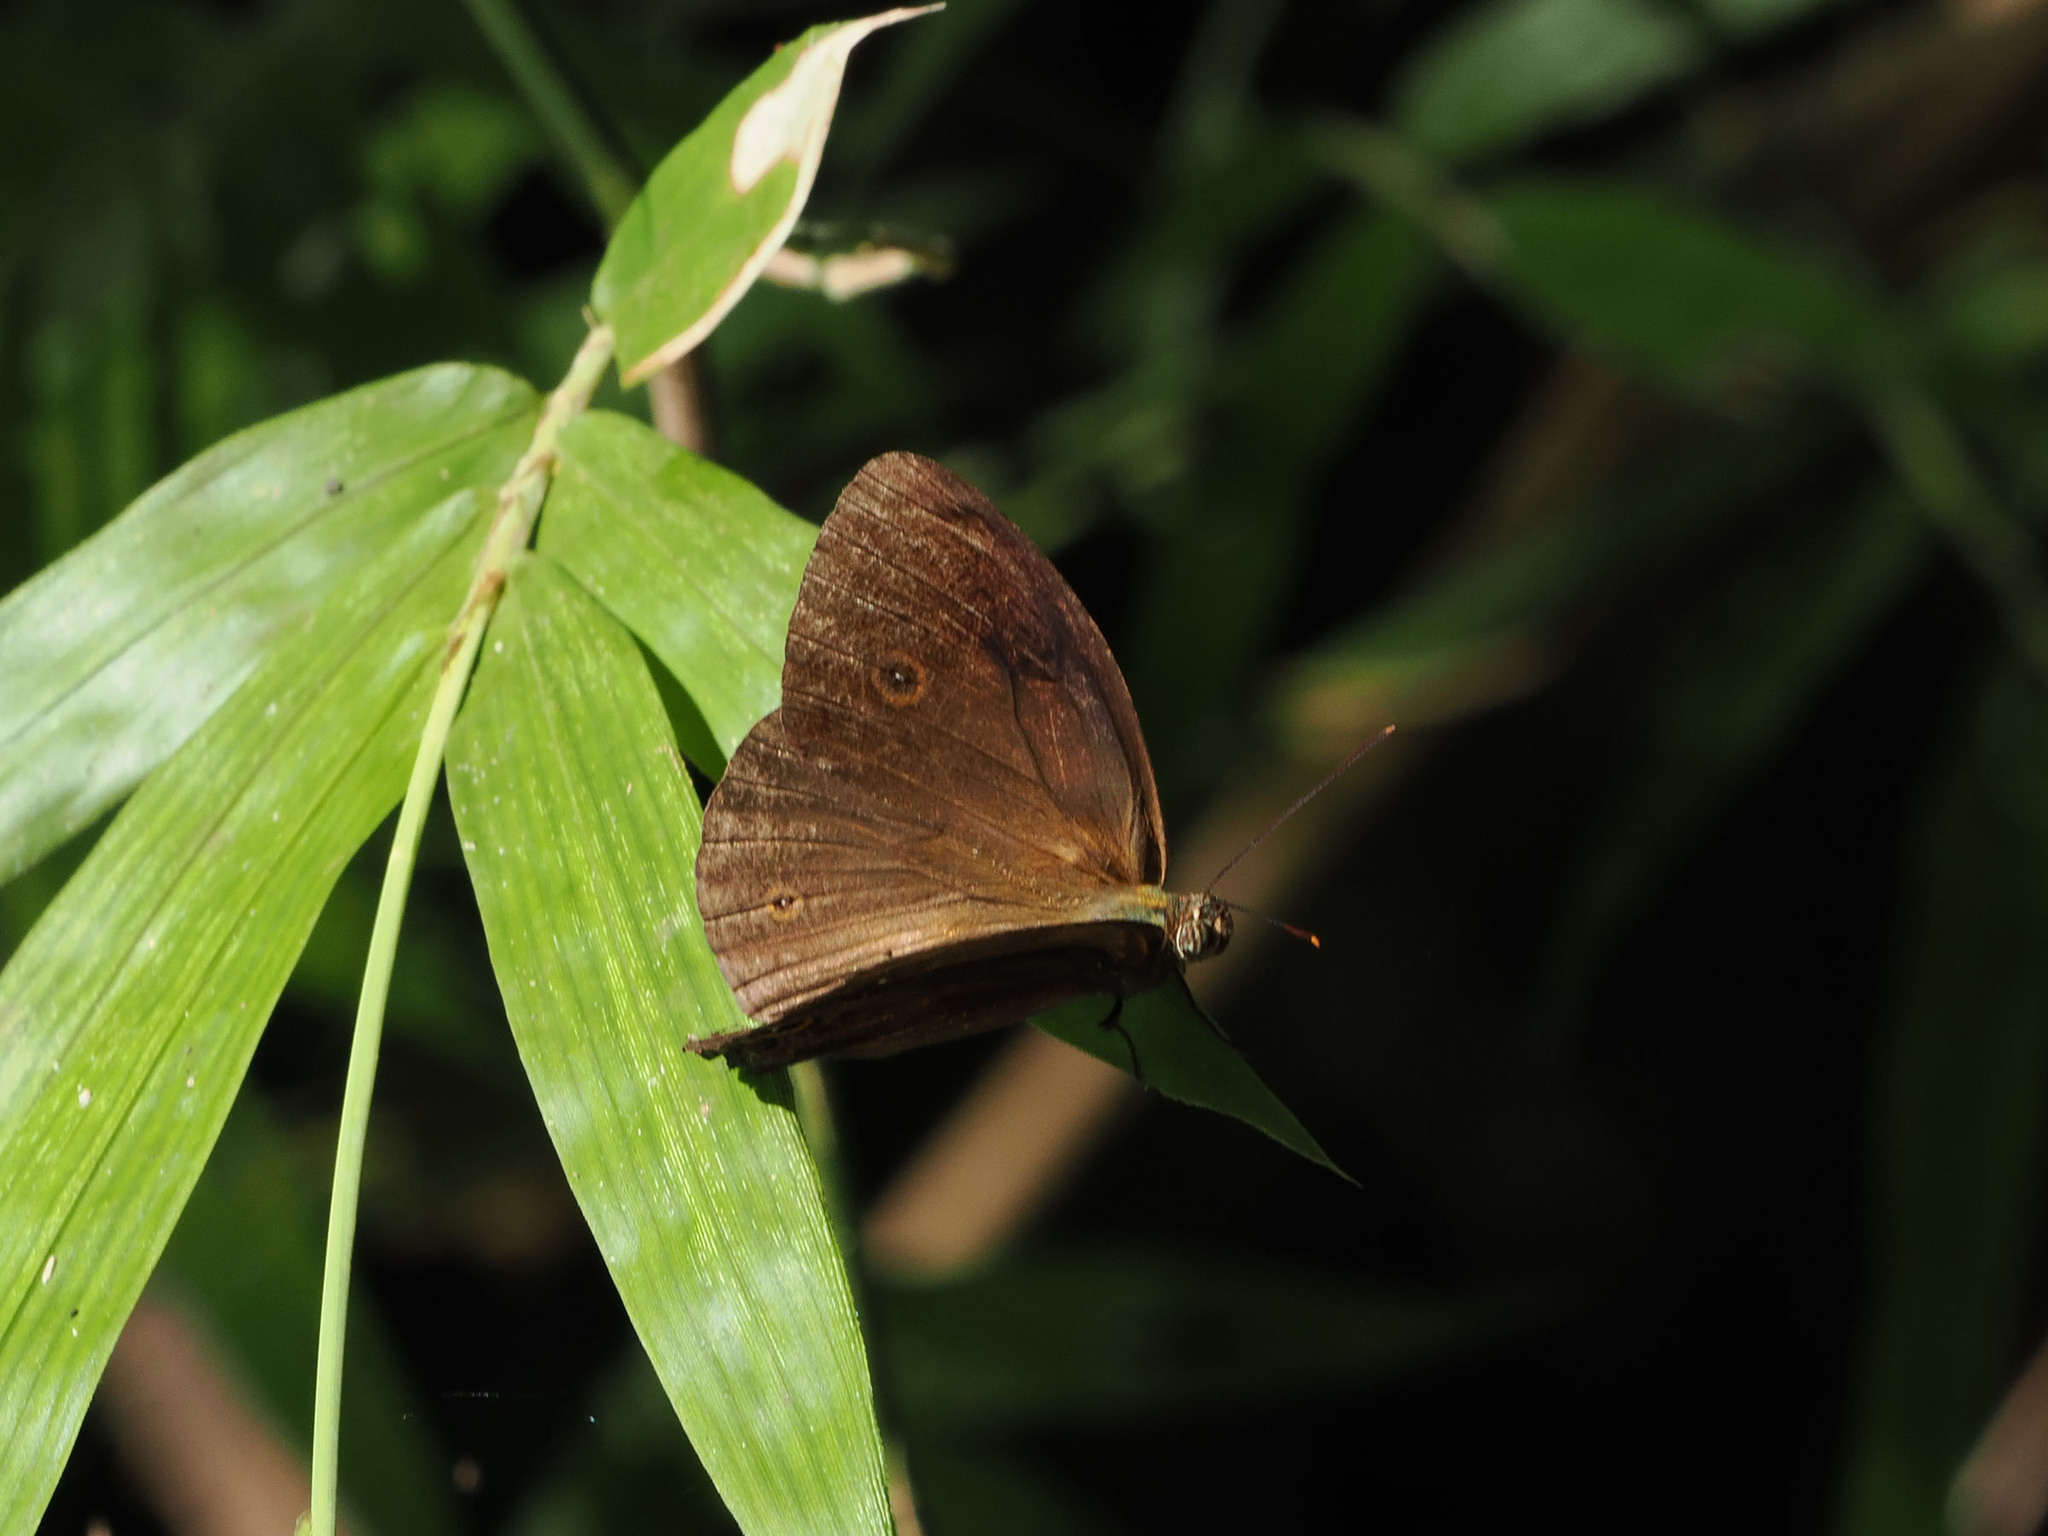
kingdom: Animalia
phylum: Arthropoda
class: Insecta
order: Lepidoptera
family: Nymphalidae
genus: Mycalesis
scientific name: Mycalesis tagala
